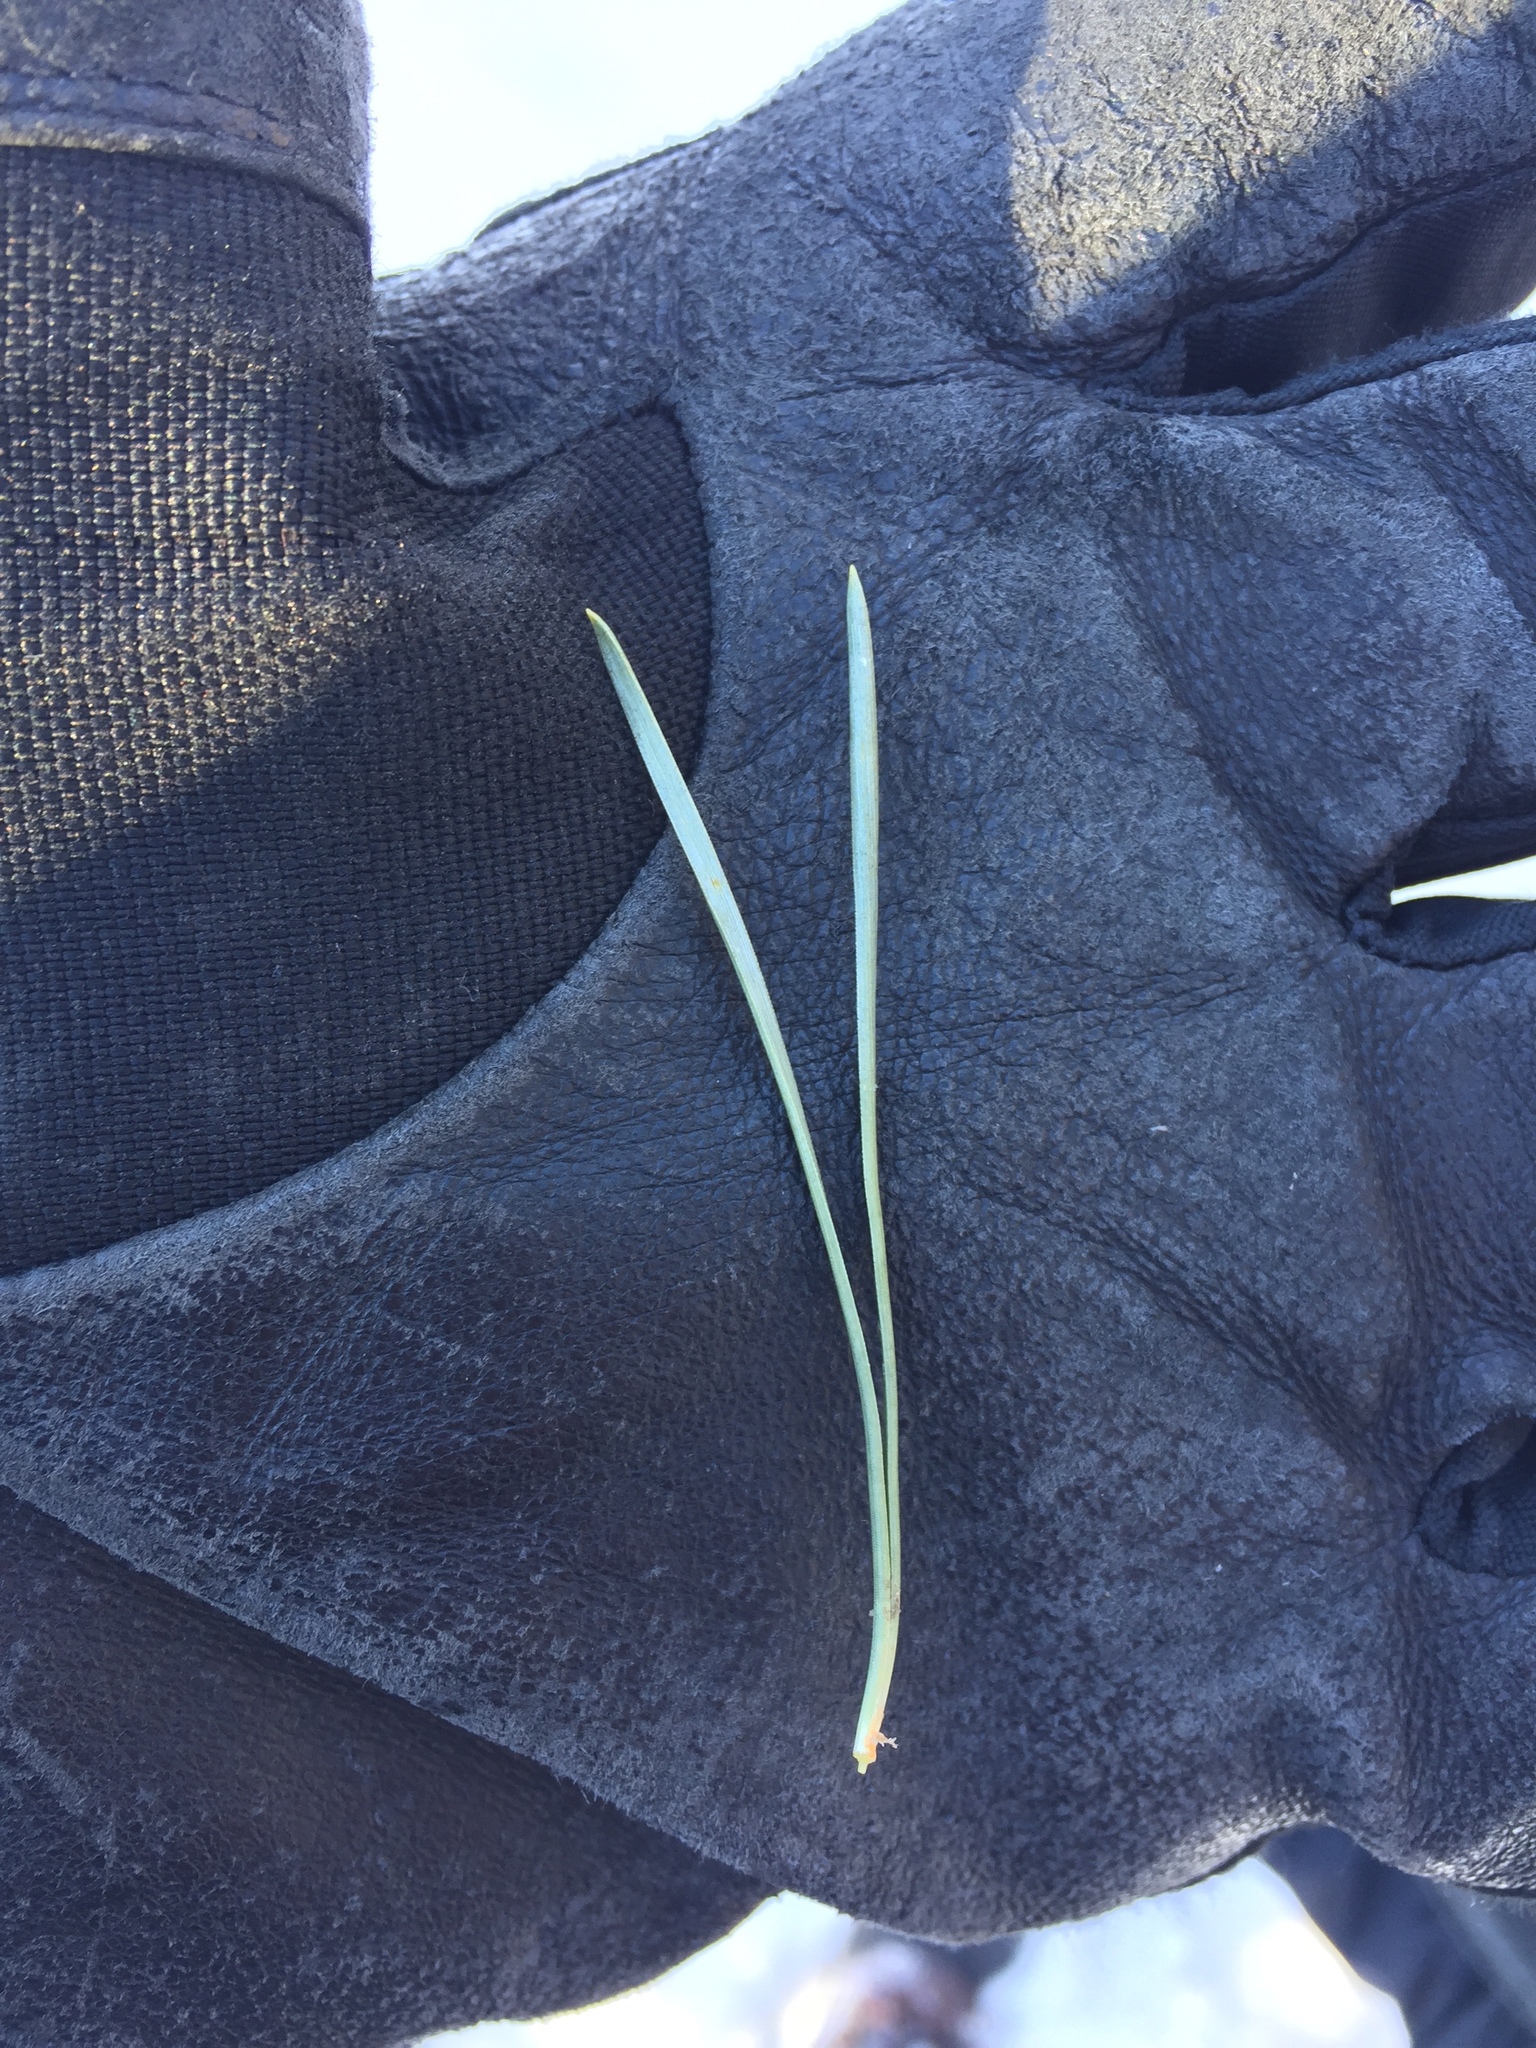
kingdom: Plantae
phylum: Tracheophyta
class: Pinopsida
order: Pinales
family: Pinaceae
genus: Pinus
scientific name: Pinus sylvestris
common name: Scots pine
